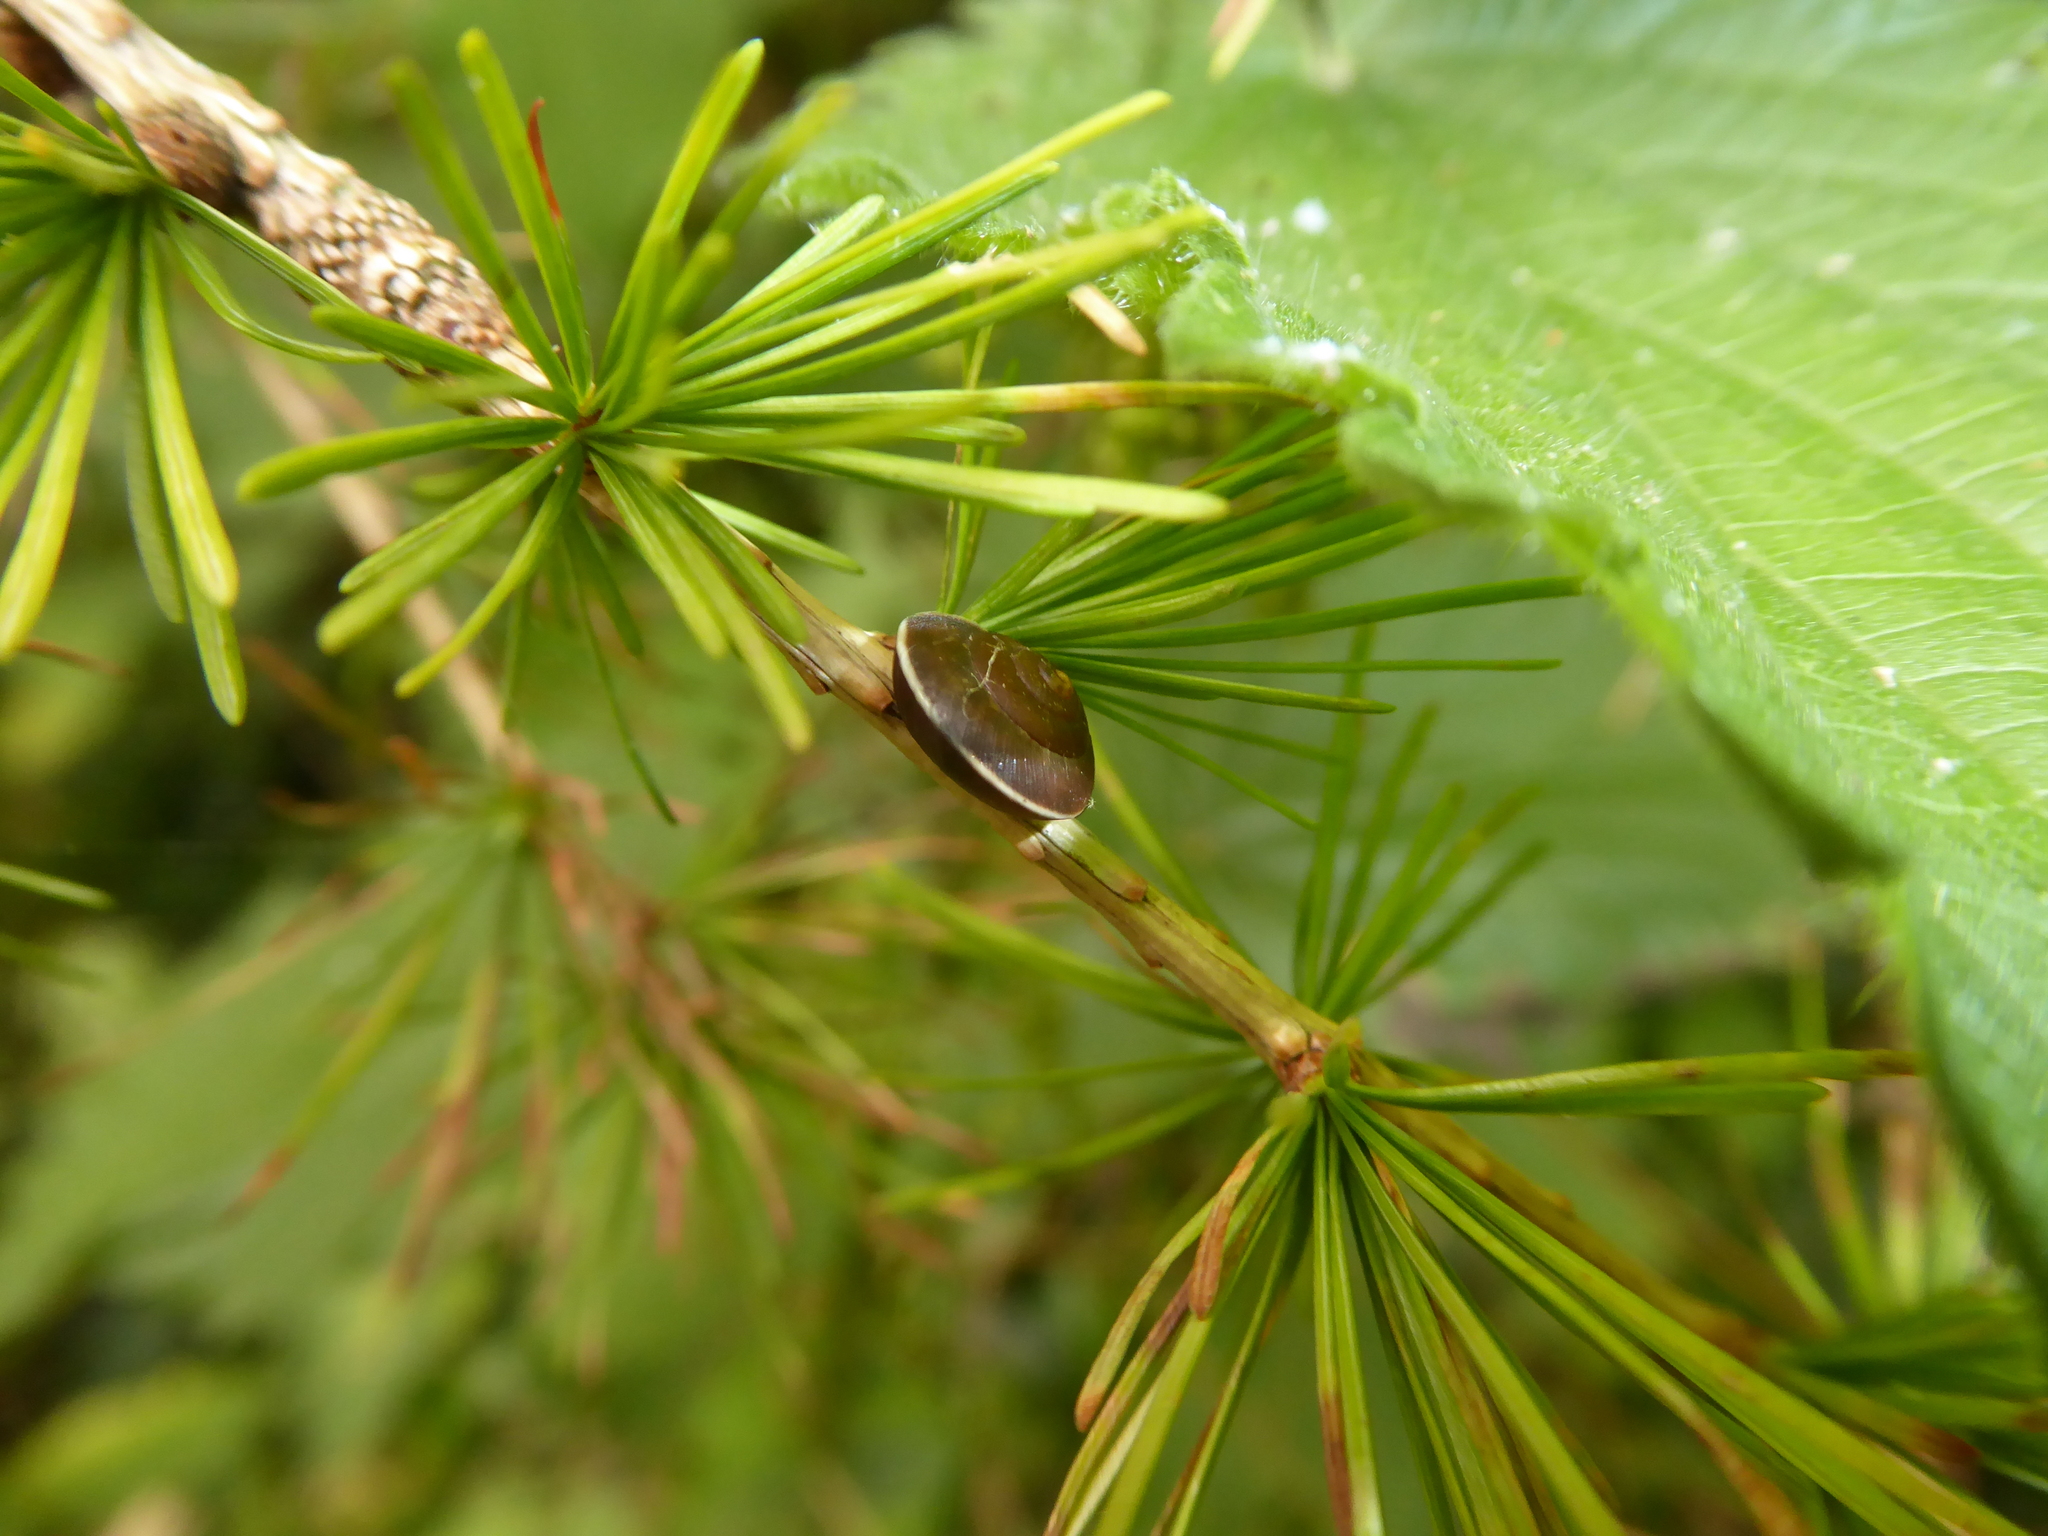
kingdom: Animalia
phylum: Mollusca
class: Gastropoda
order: Stylommatophora
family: Hygromiidae
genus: Hygromia
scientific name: Hygromia cinctella
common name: Girdled snail
